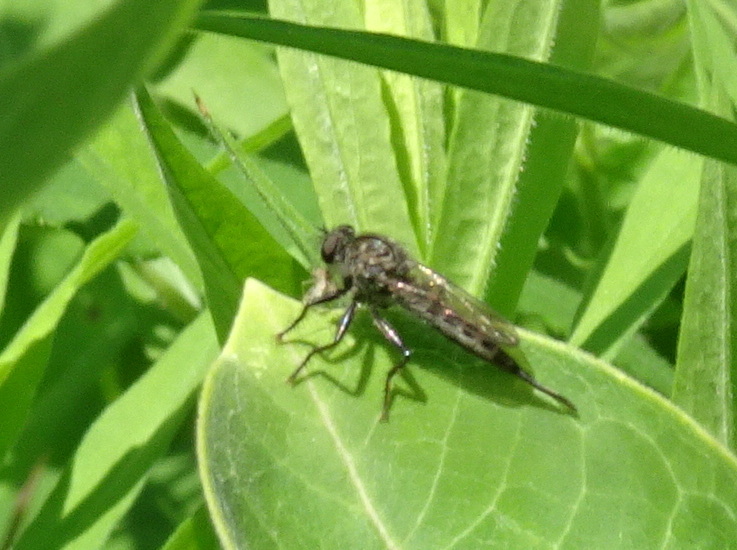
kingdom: Animalia
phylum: Arthropoda
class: Insecta
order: Diptera
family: Asilidae
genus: Efferia
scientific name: Efferia aestuans
